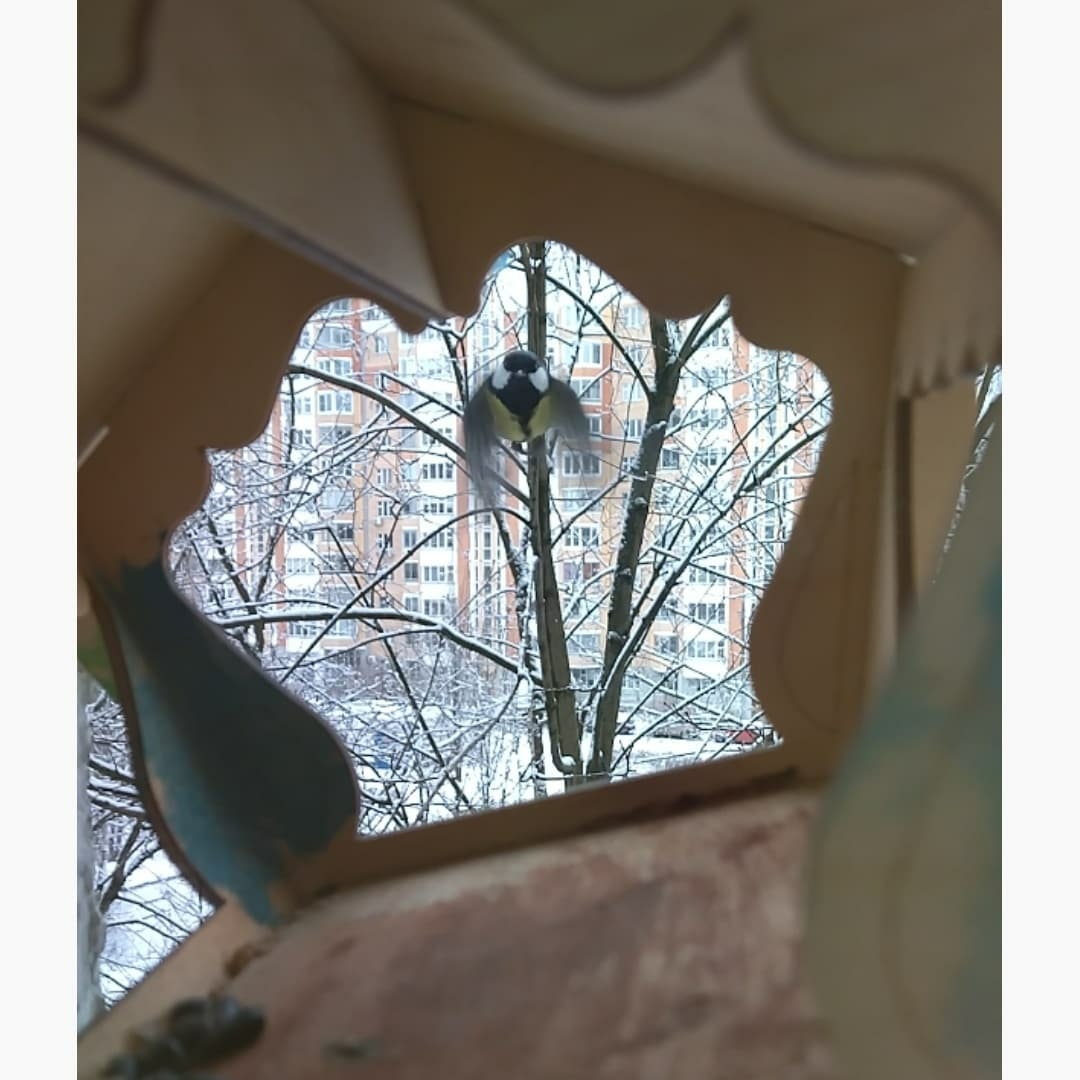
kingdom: Animalia
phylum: Chordata
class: Aves
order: Passeriformes
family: Paridae
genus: Parus
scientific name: Parus major
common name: Great tit
